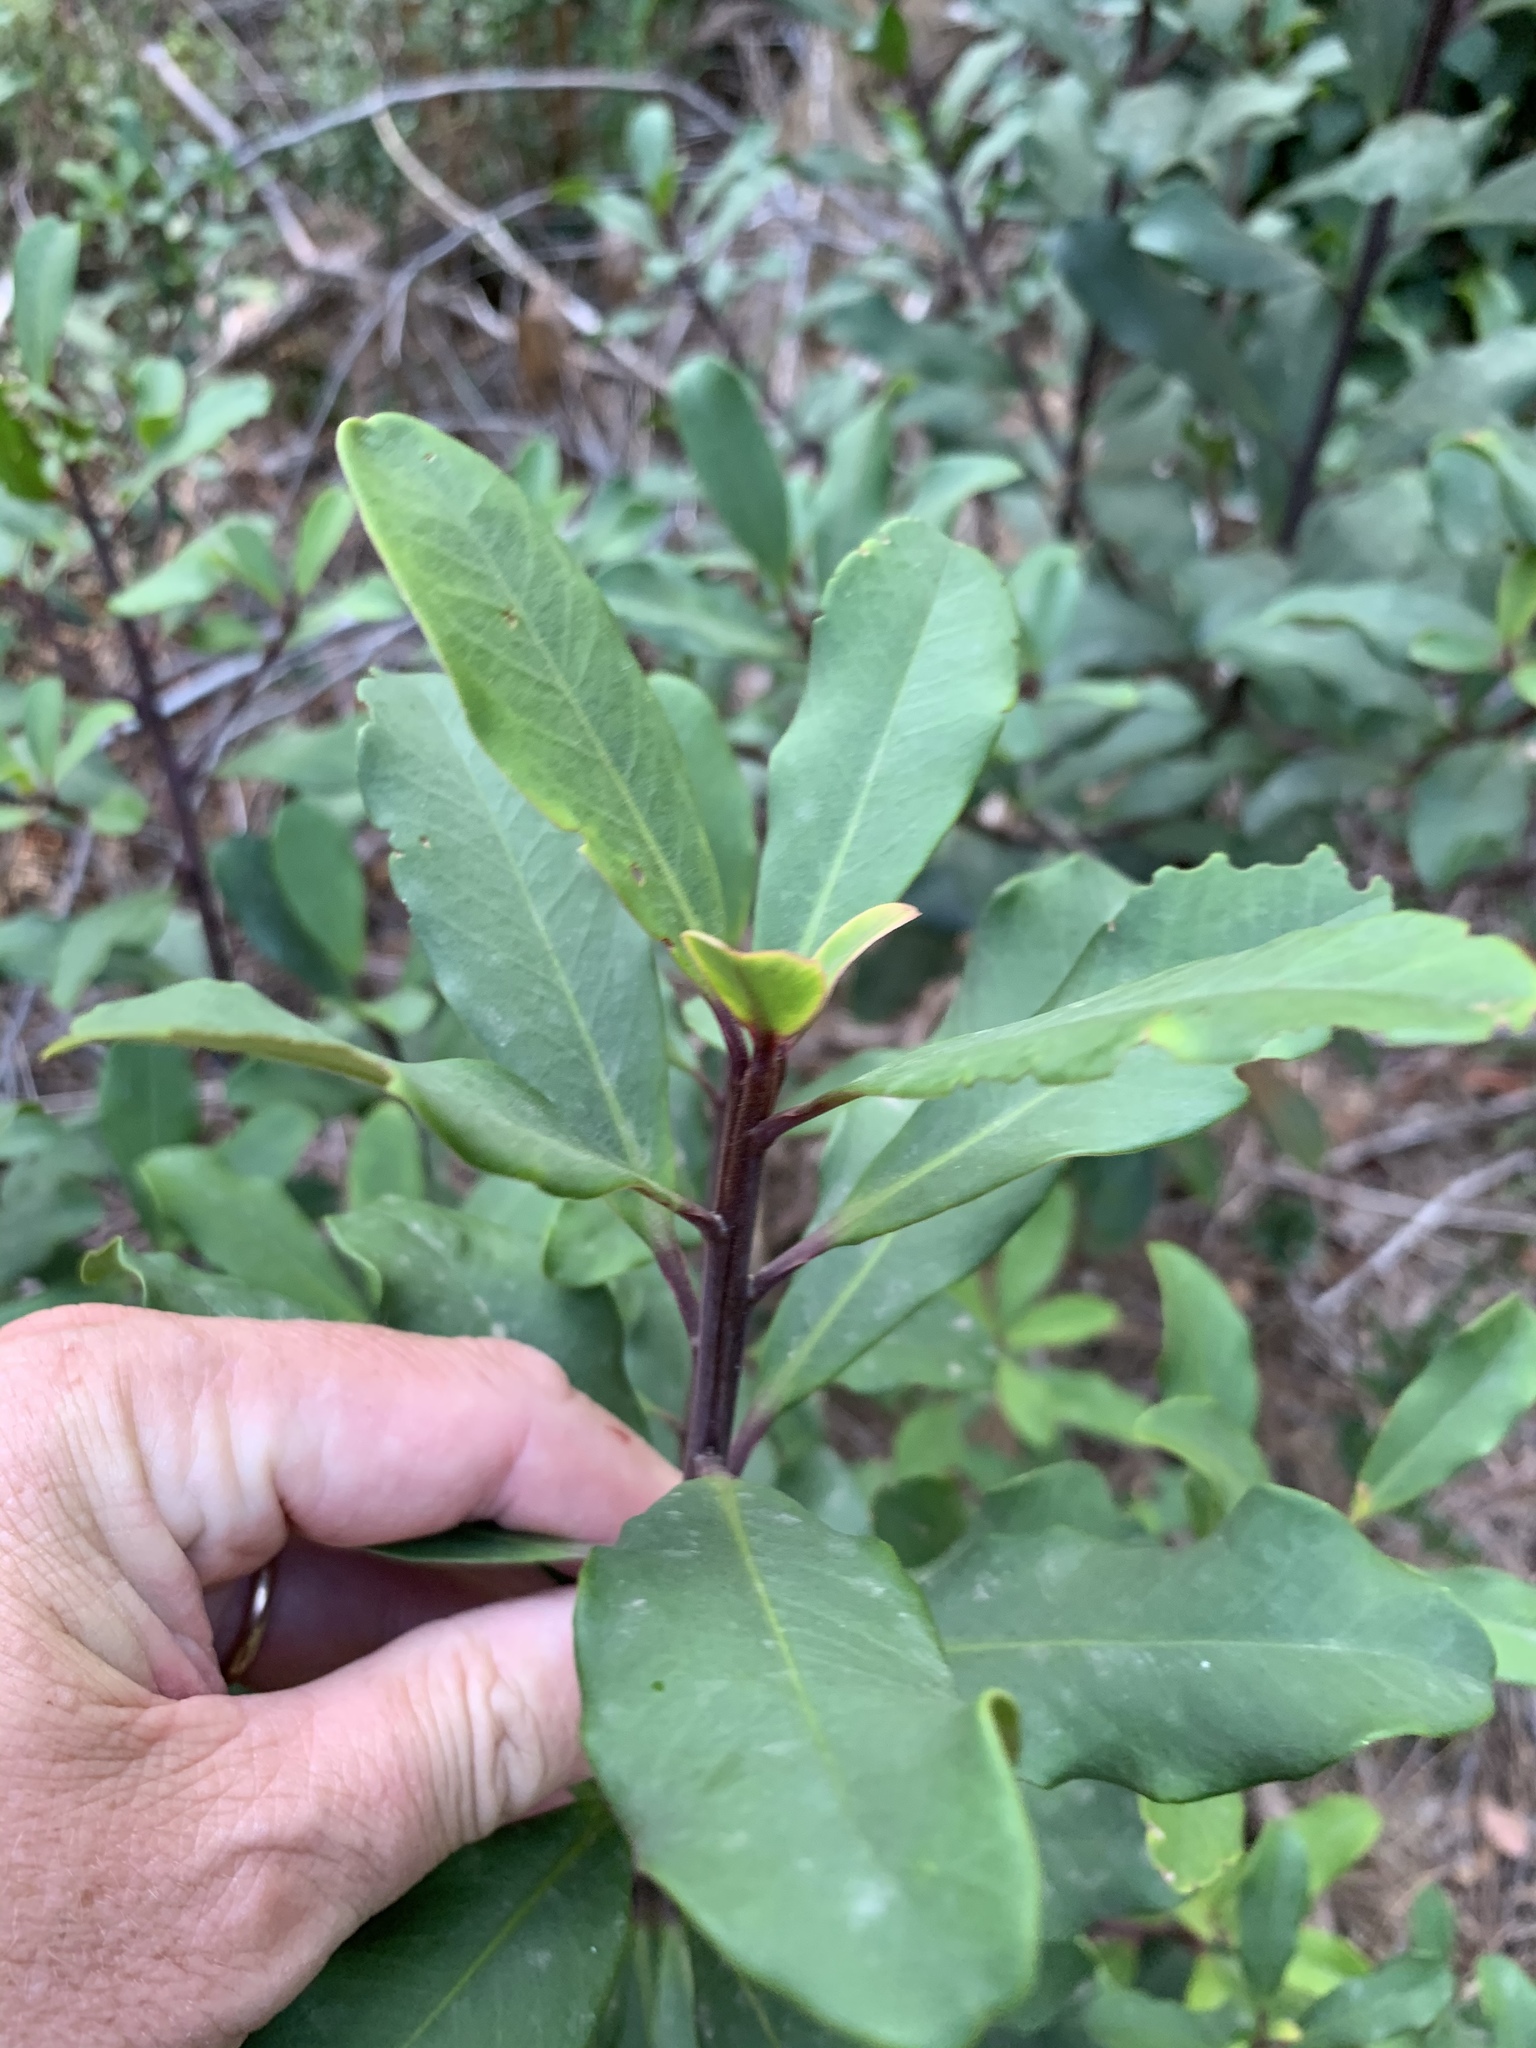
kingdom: Plantae
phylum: Tracheophyta
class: Magnoliopsida
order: Ericales
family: Primulaceae
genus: Myrsine
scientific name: Myrsine melanophloeos
